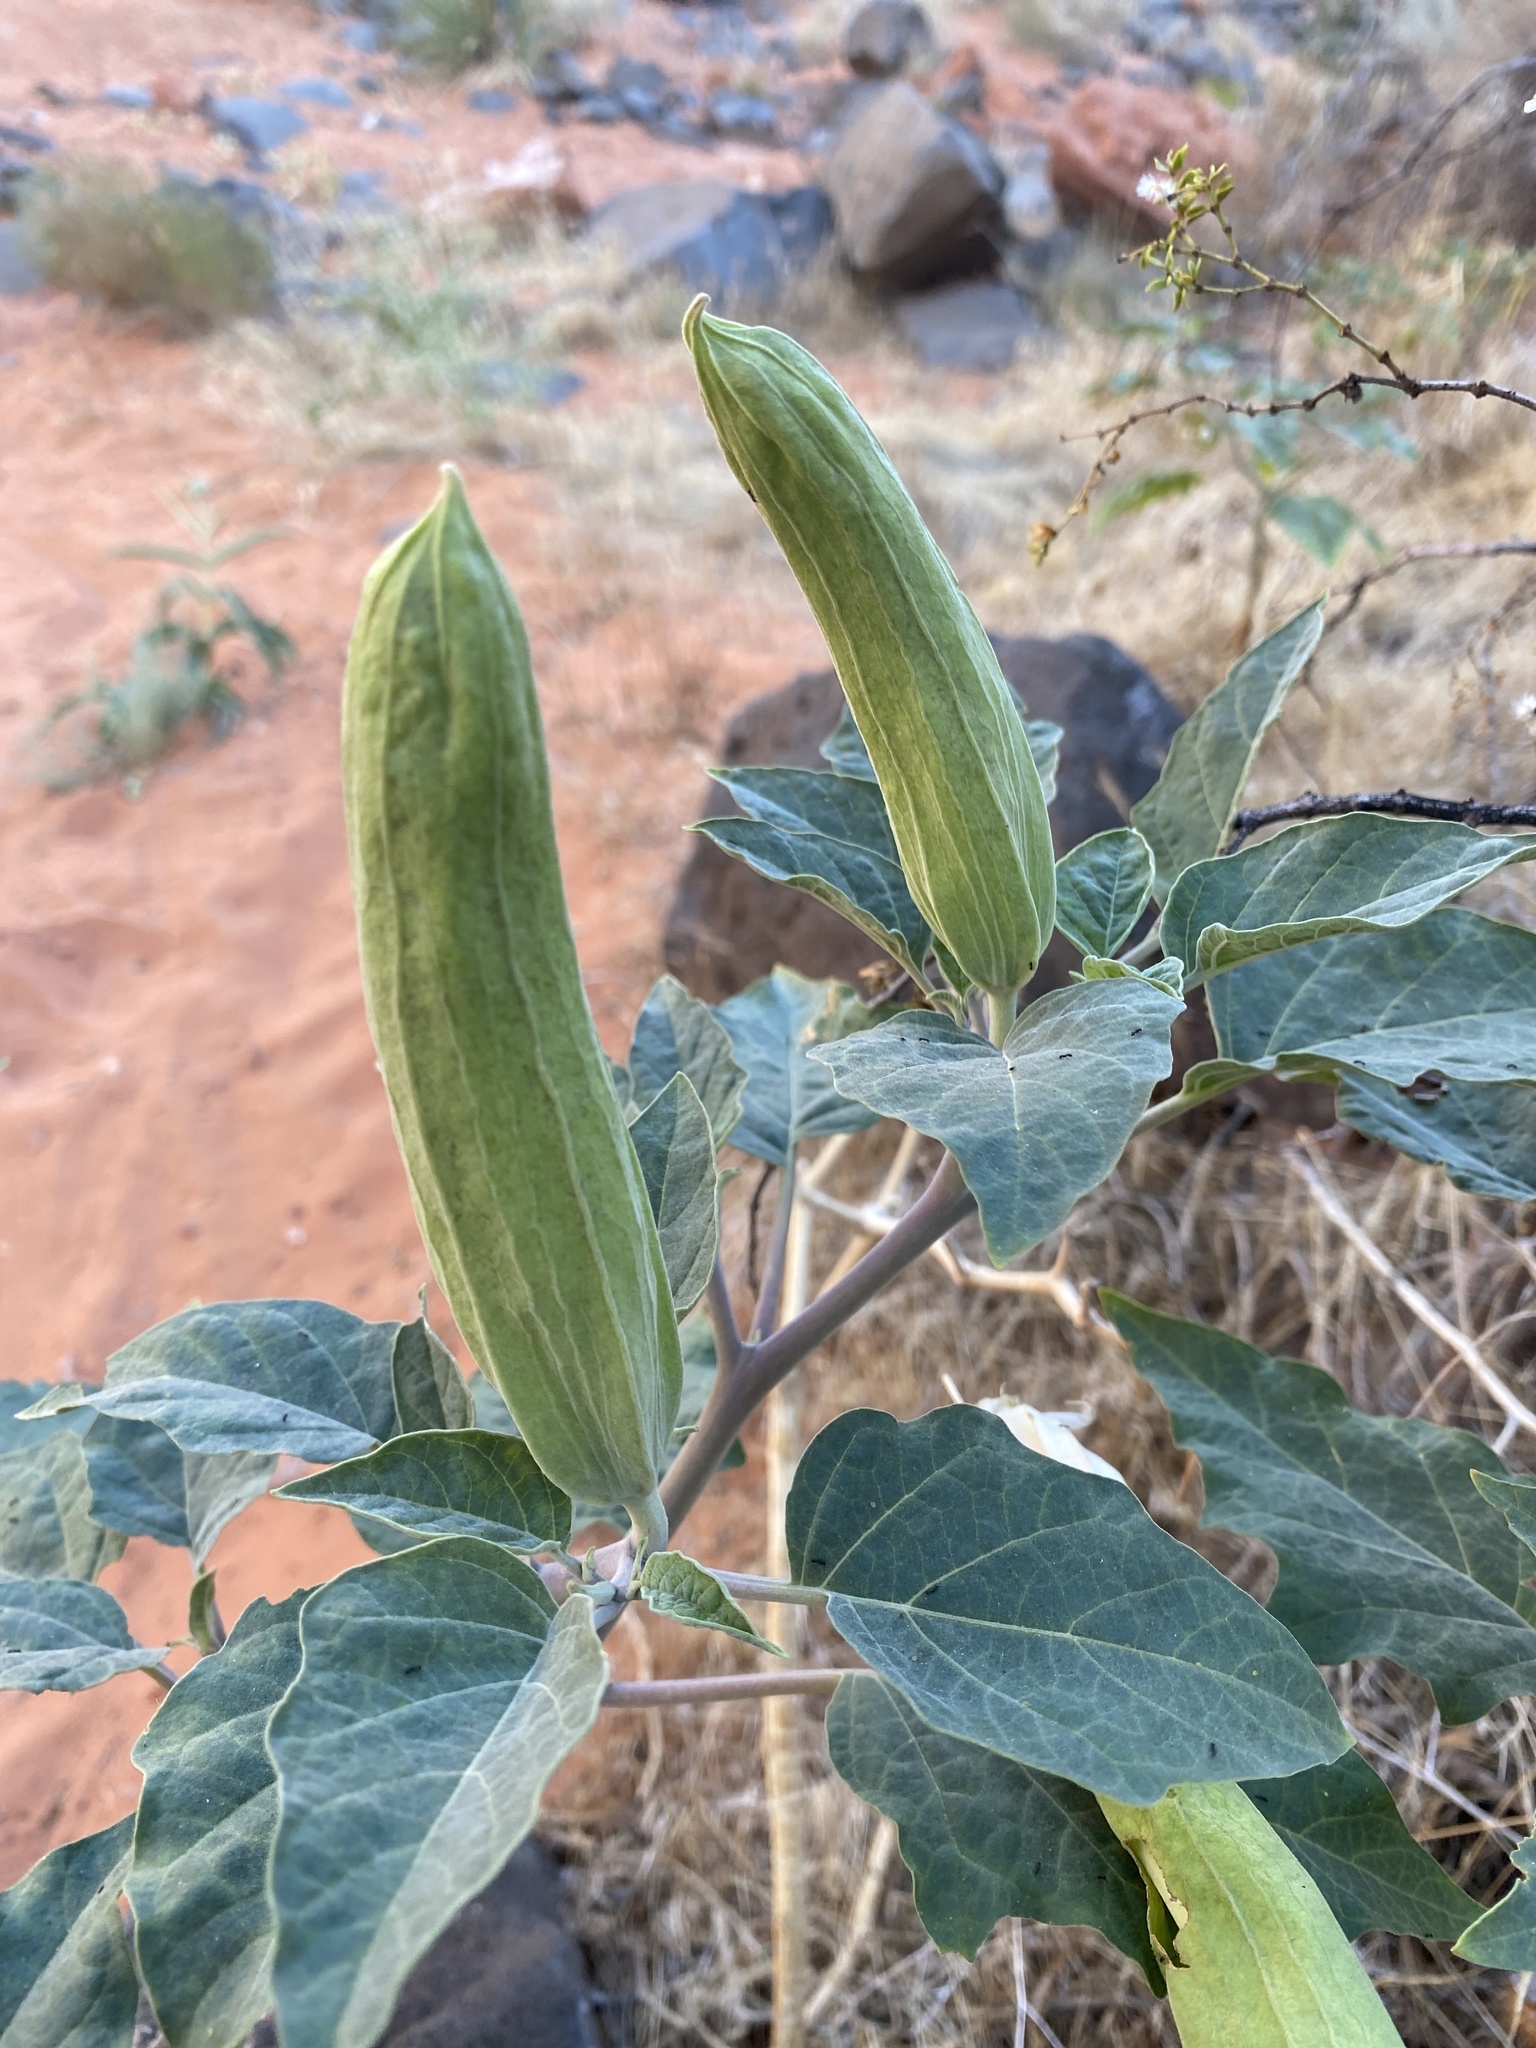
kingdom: Plantae
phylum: Tracheophyta
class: Magnoliopsida
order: Solanales
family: Solanaceae
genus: Datura
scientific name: Datura wrightii
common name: Sacred thorn-apple
